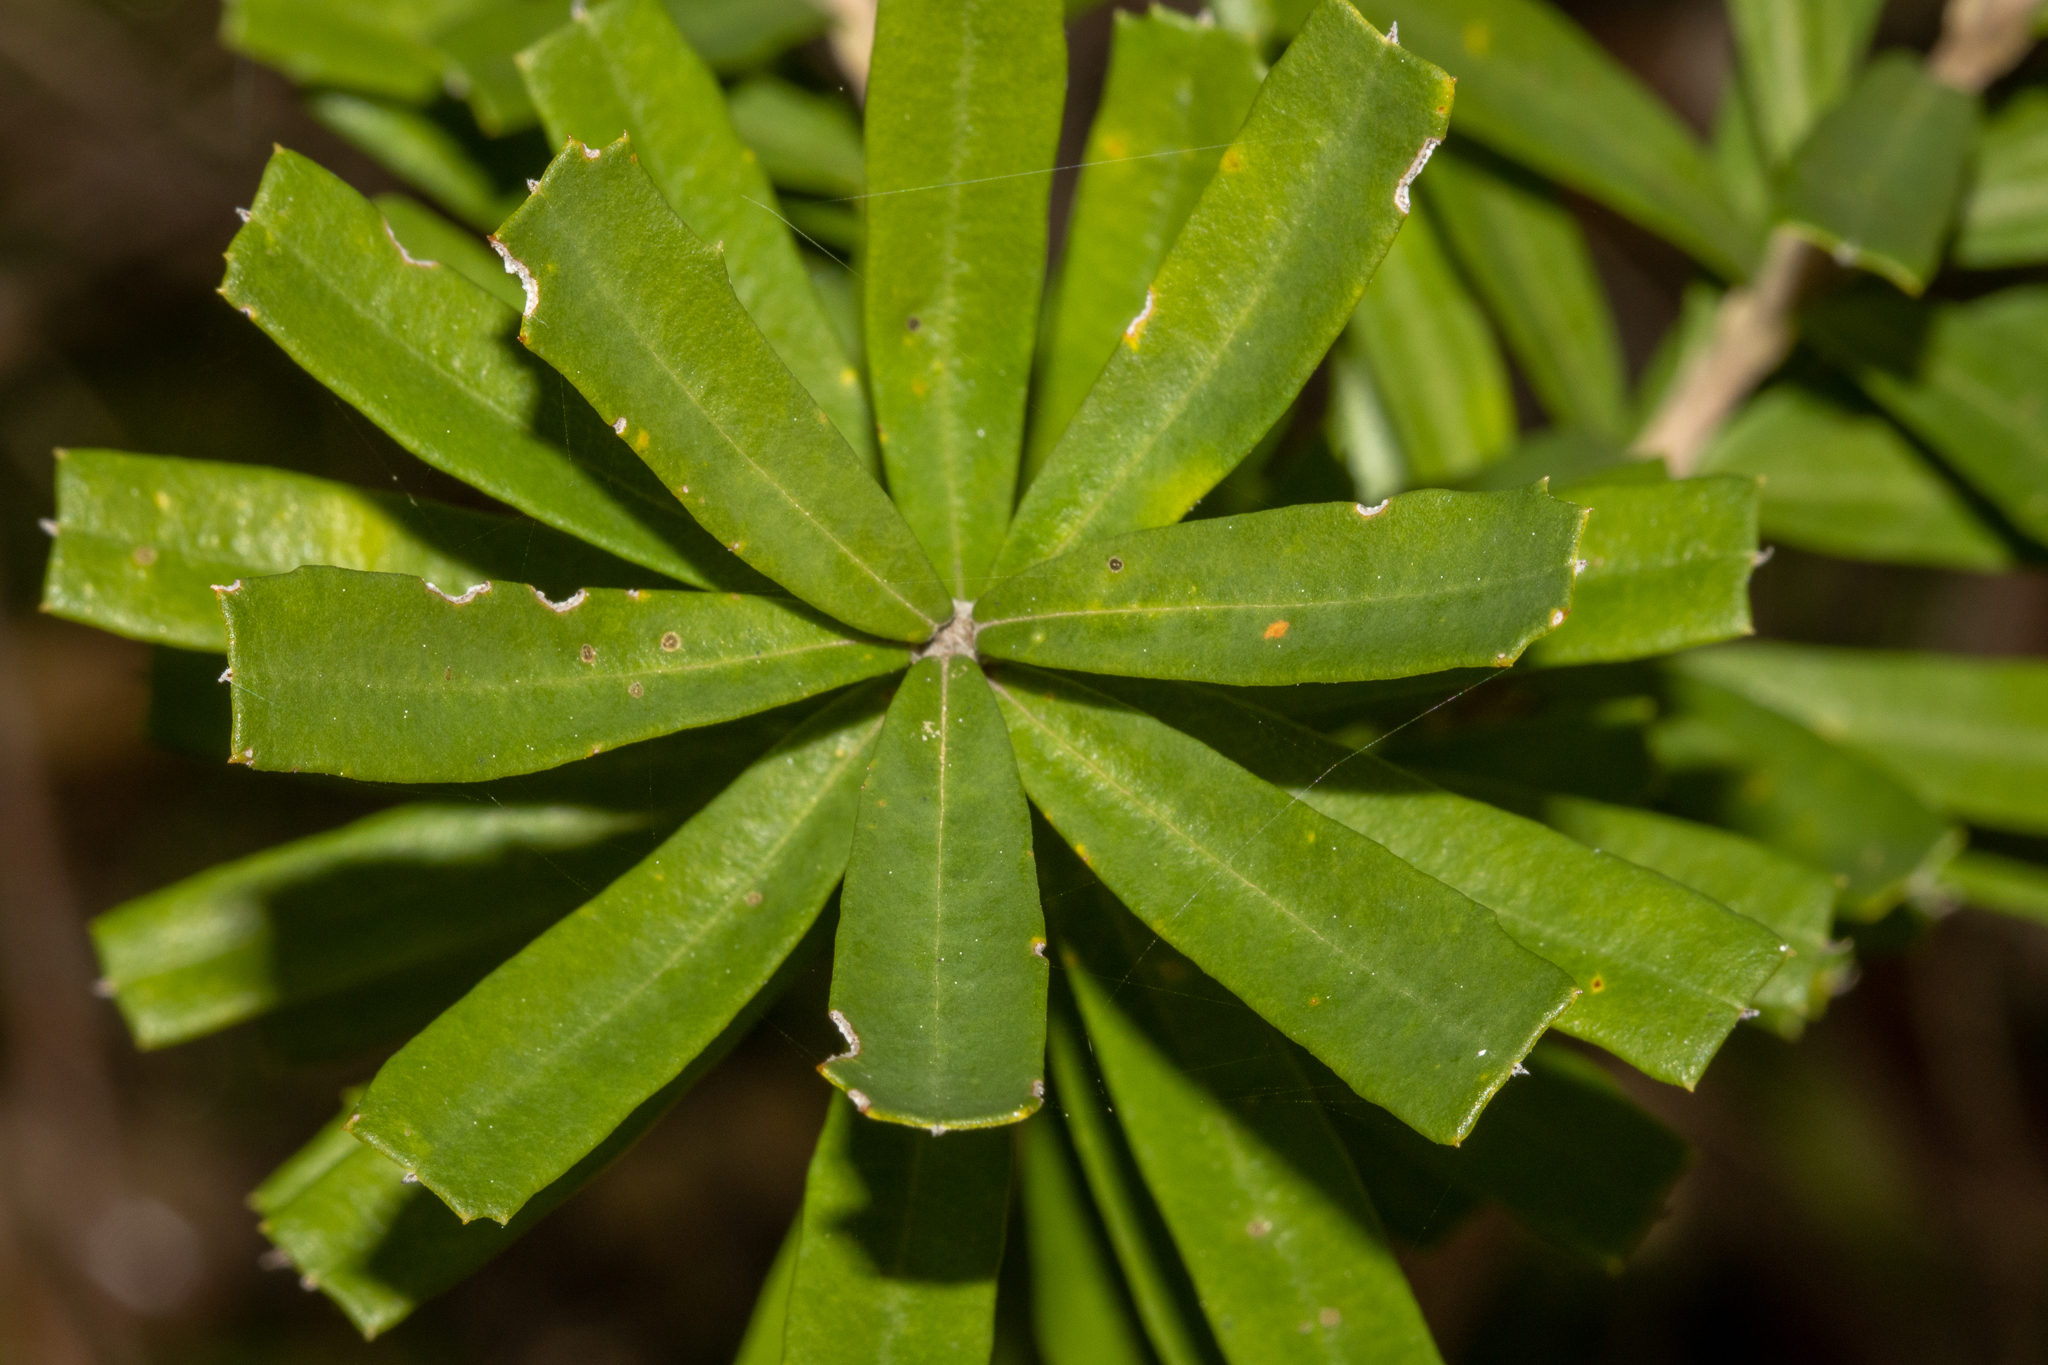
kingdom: Plantae
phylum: Tracheophyta
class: Magnoliopsida
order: Proteales
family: Proteaceae
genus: Banksia
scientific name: Banksia marginata
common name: Silver banksia
